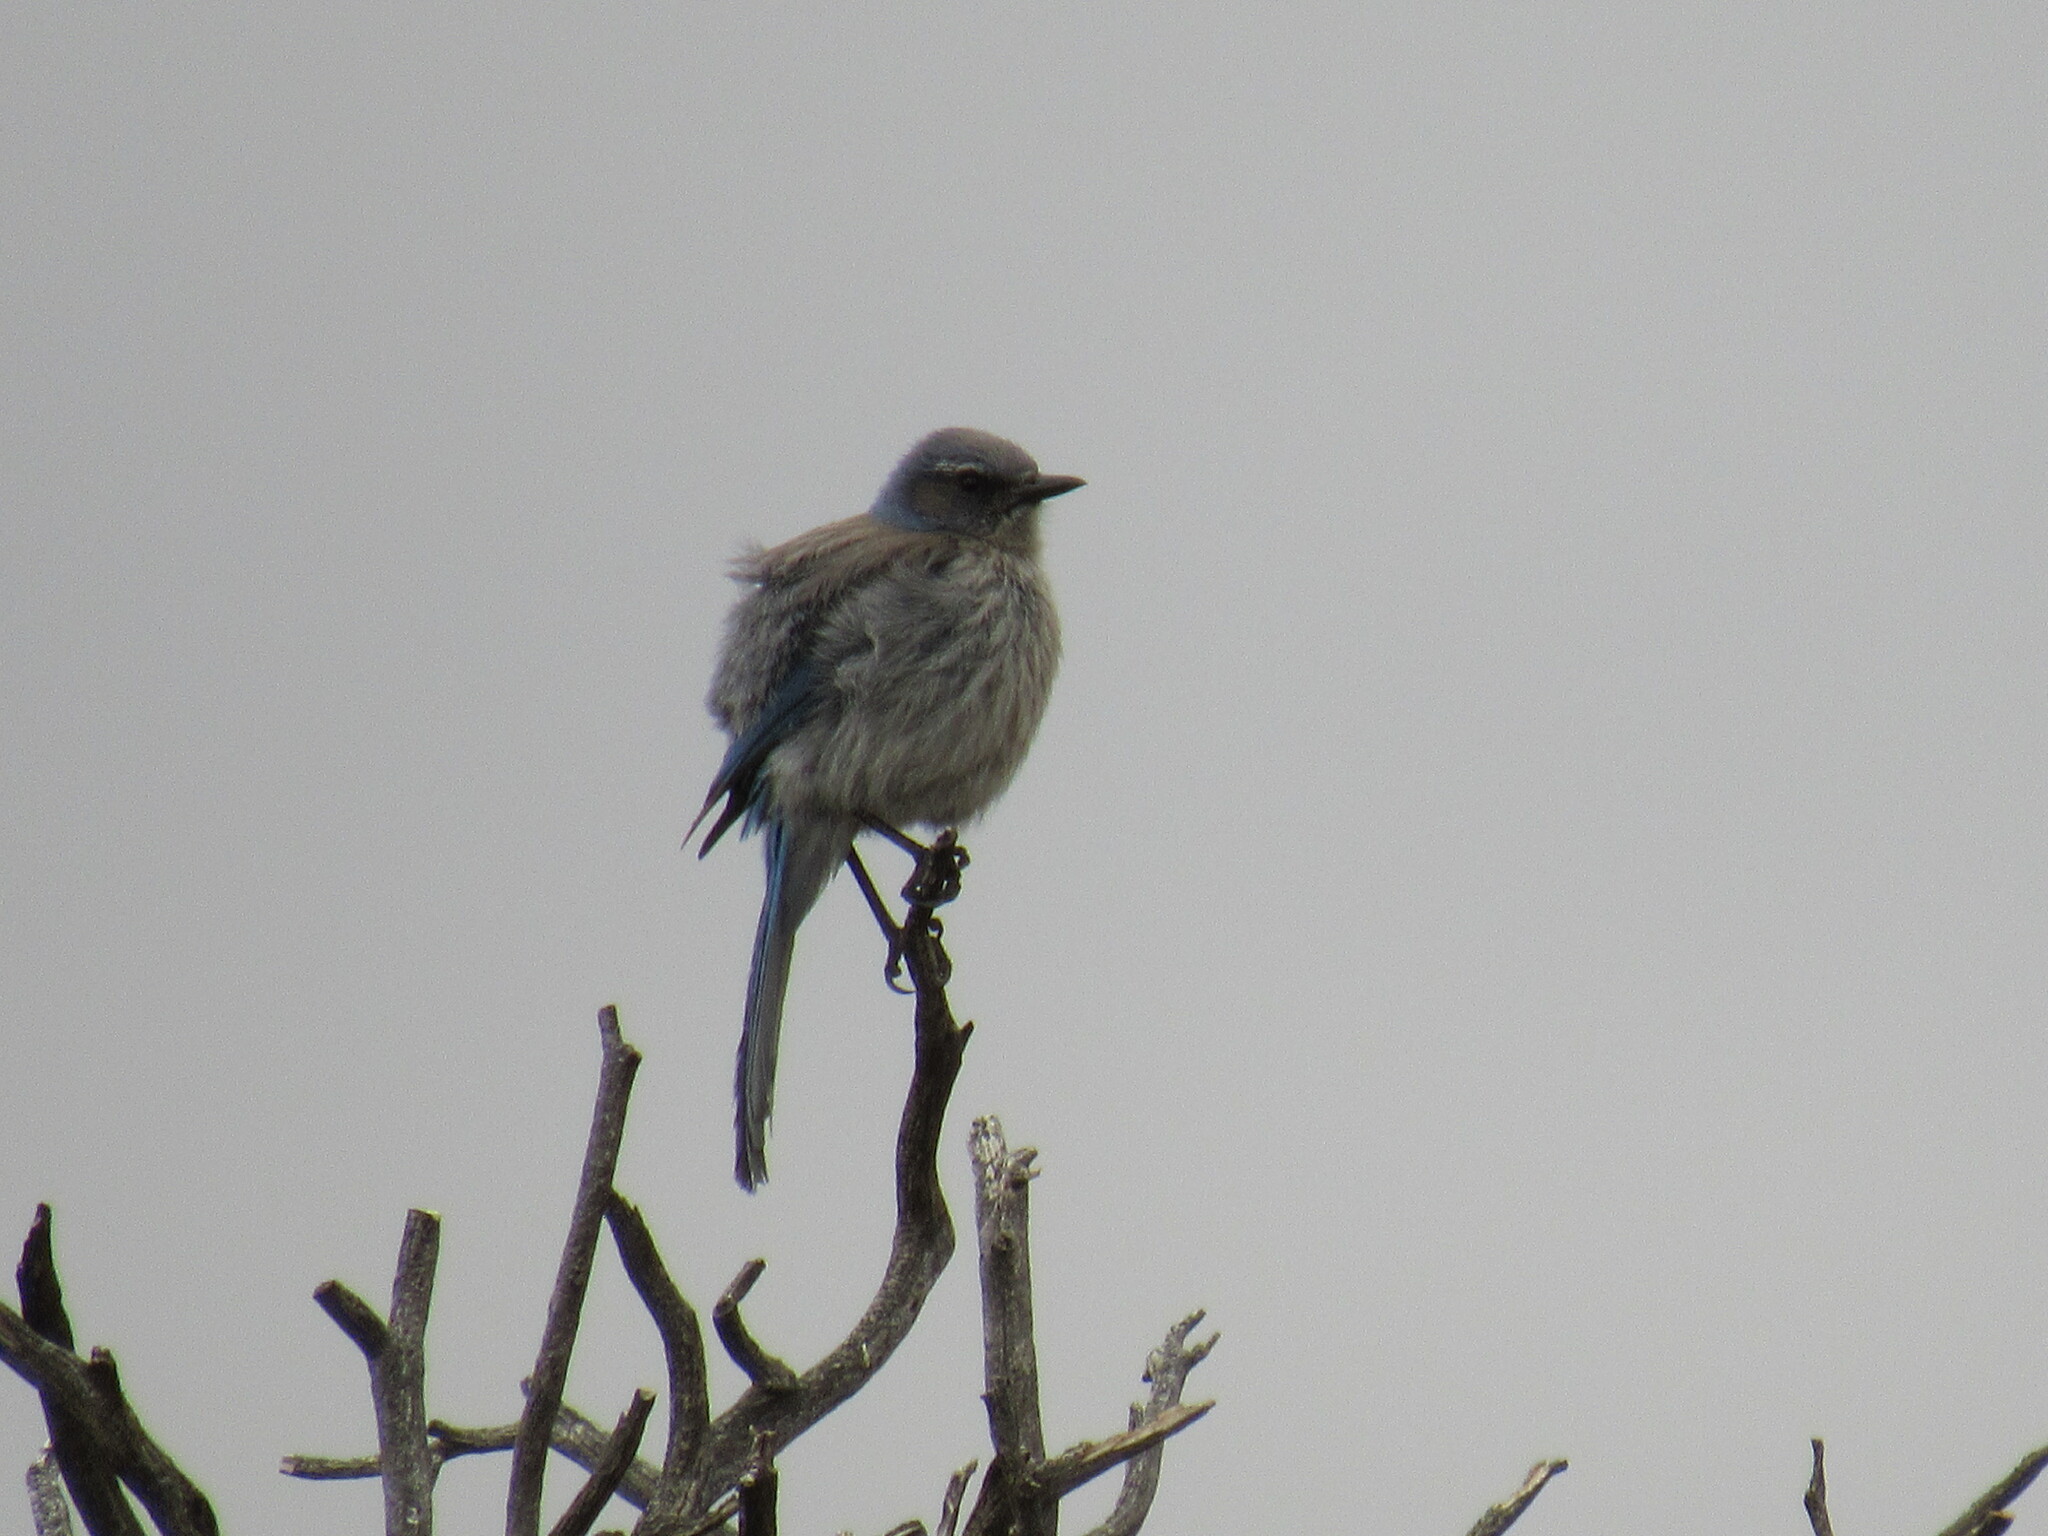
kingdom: Animalia
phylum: Chordata
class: Aves
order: Passeriformes
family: Corvidae
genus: Aphelocoma
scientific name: Aphelocoma woodhouseii
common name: Woodhouse's scrub-jay
